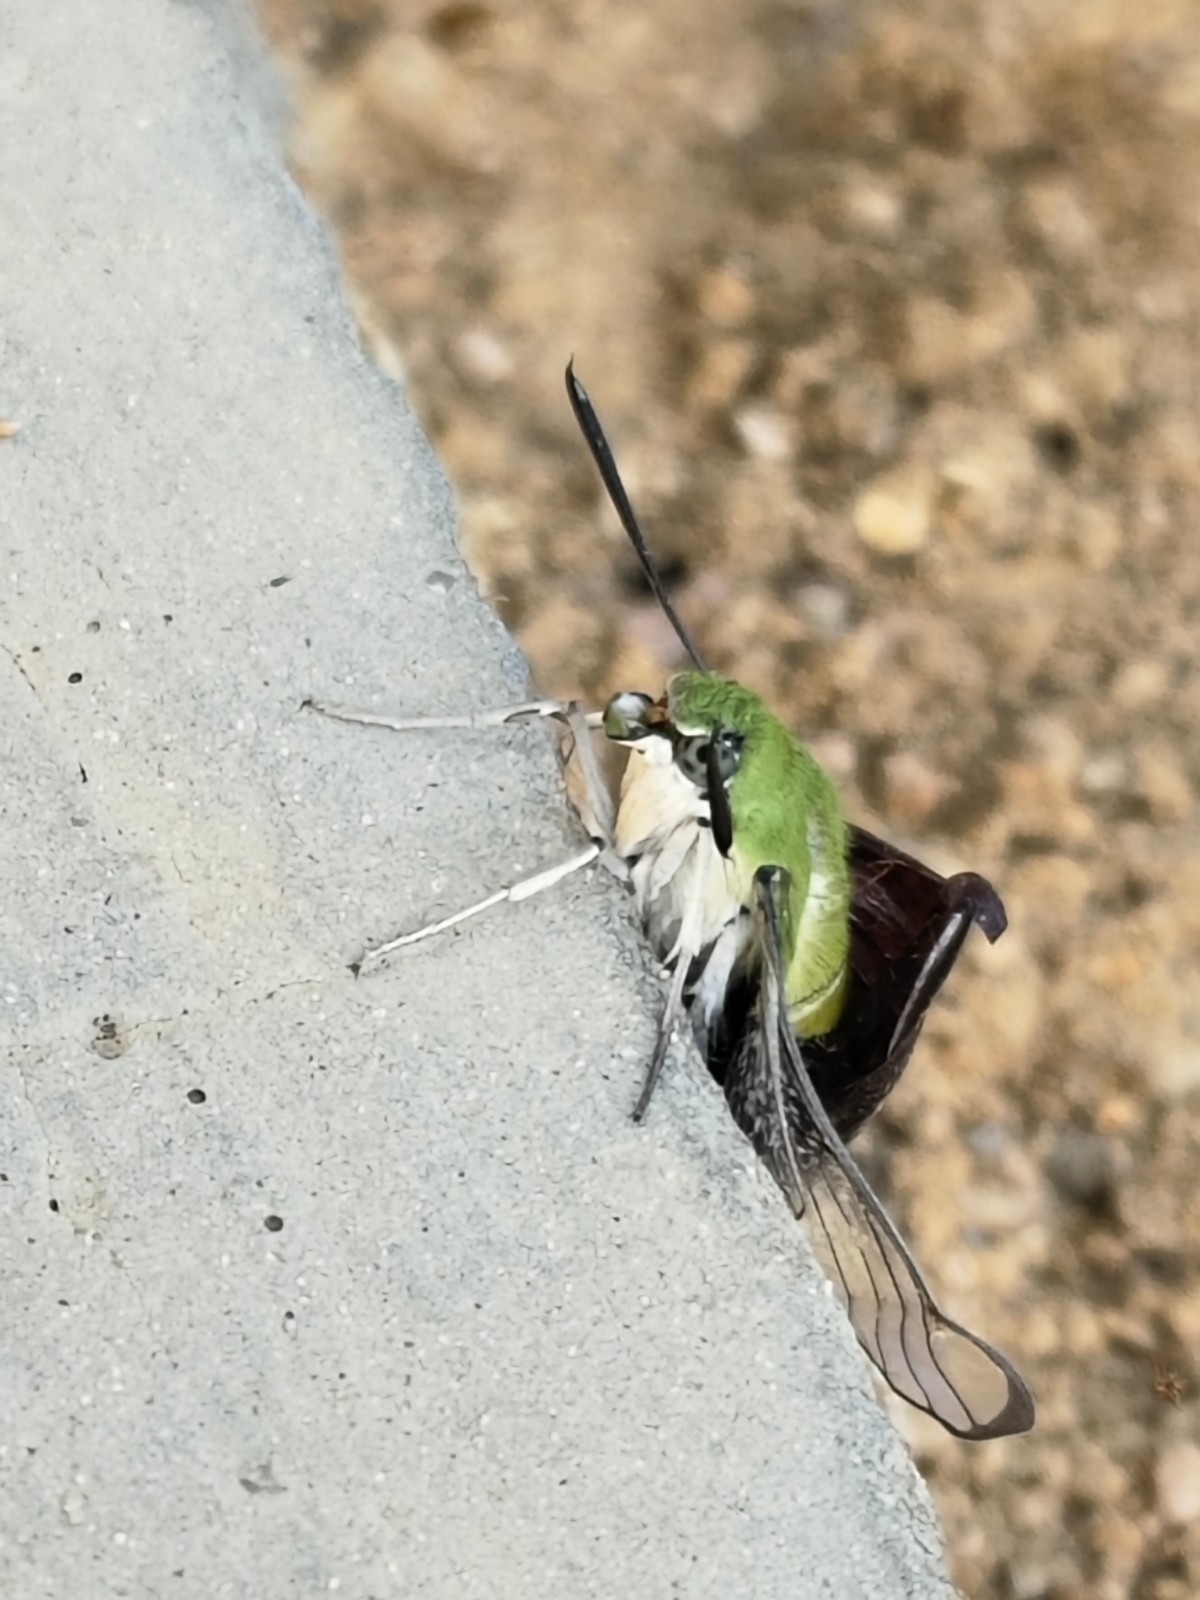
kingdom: Animalia
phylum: Arthropoda
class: Insecta
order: Lepidoptera
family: Sphingidae
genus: Cephonodes
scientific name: Cephonodes hylas
